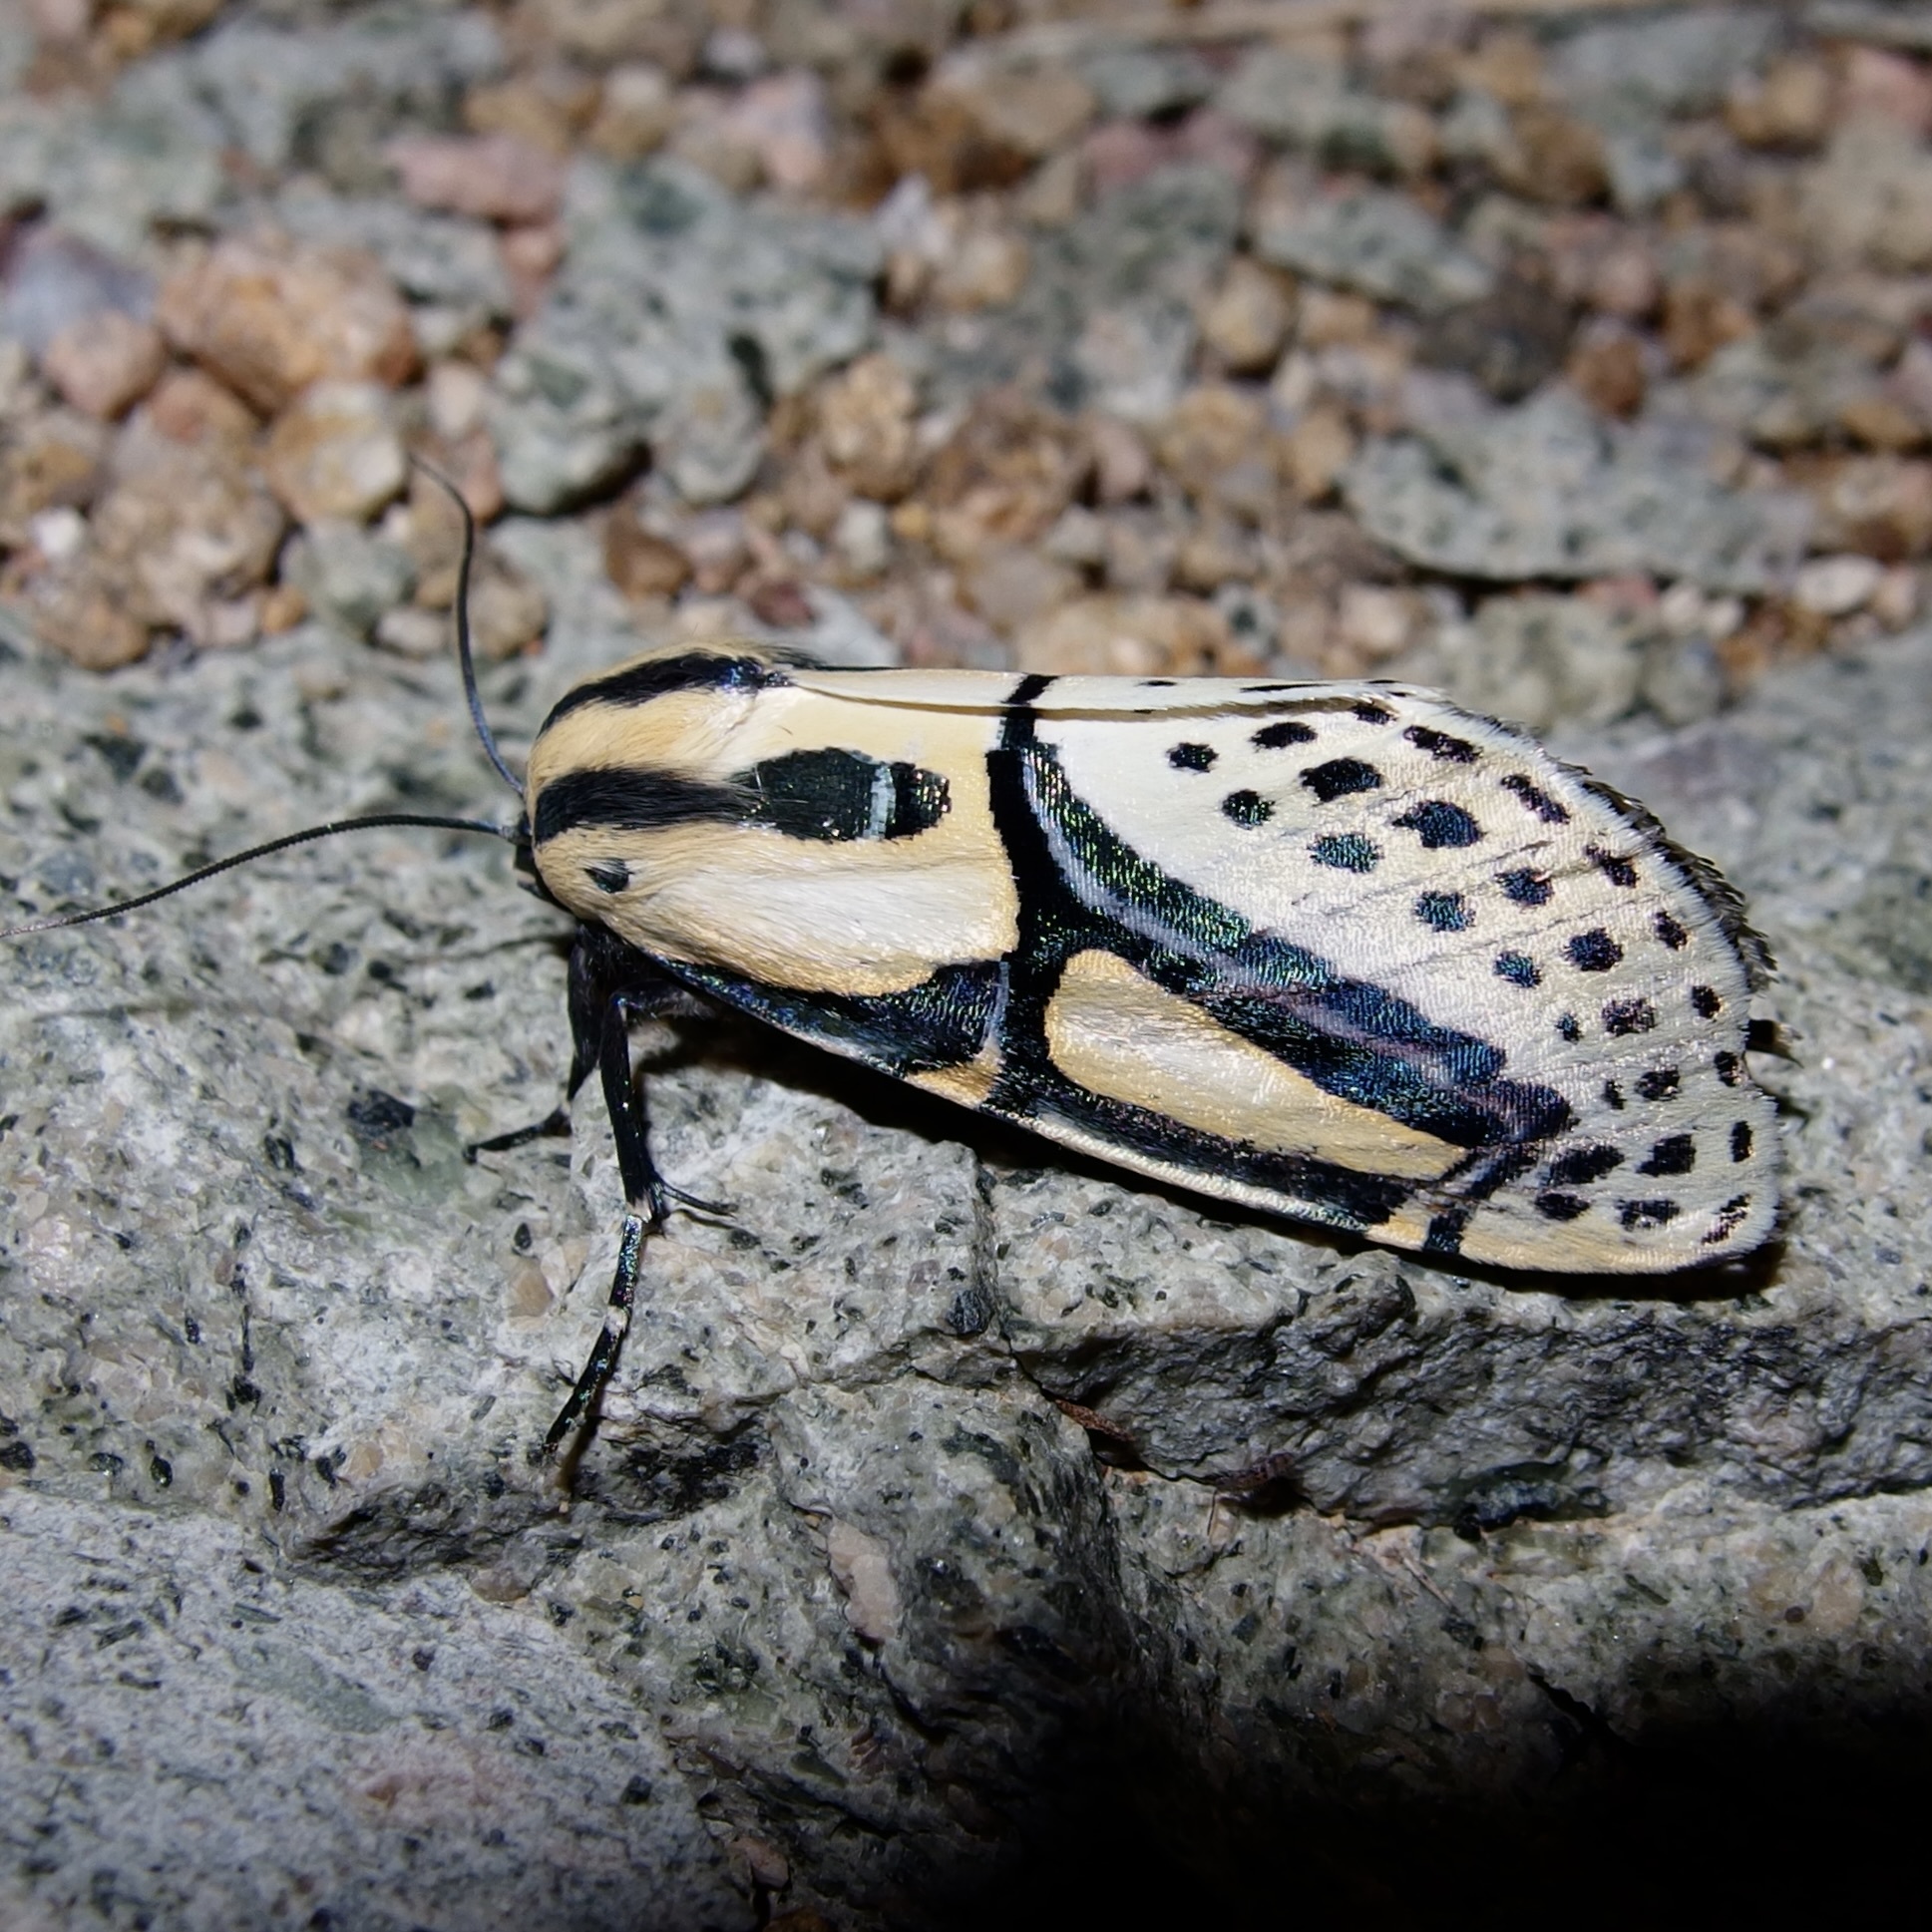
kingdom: Animalia
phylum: Arthropoda
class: Insecta
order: Lepidoptera
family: Erebidae
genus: Diphthera
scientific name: Diphthera festiva
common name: Hieroglyphic moth
